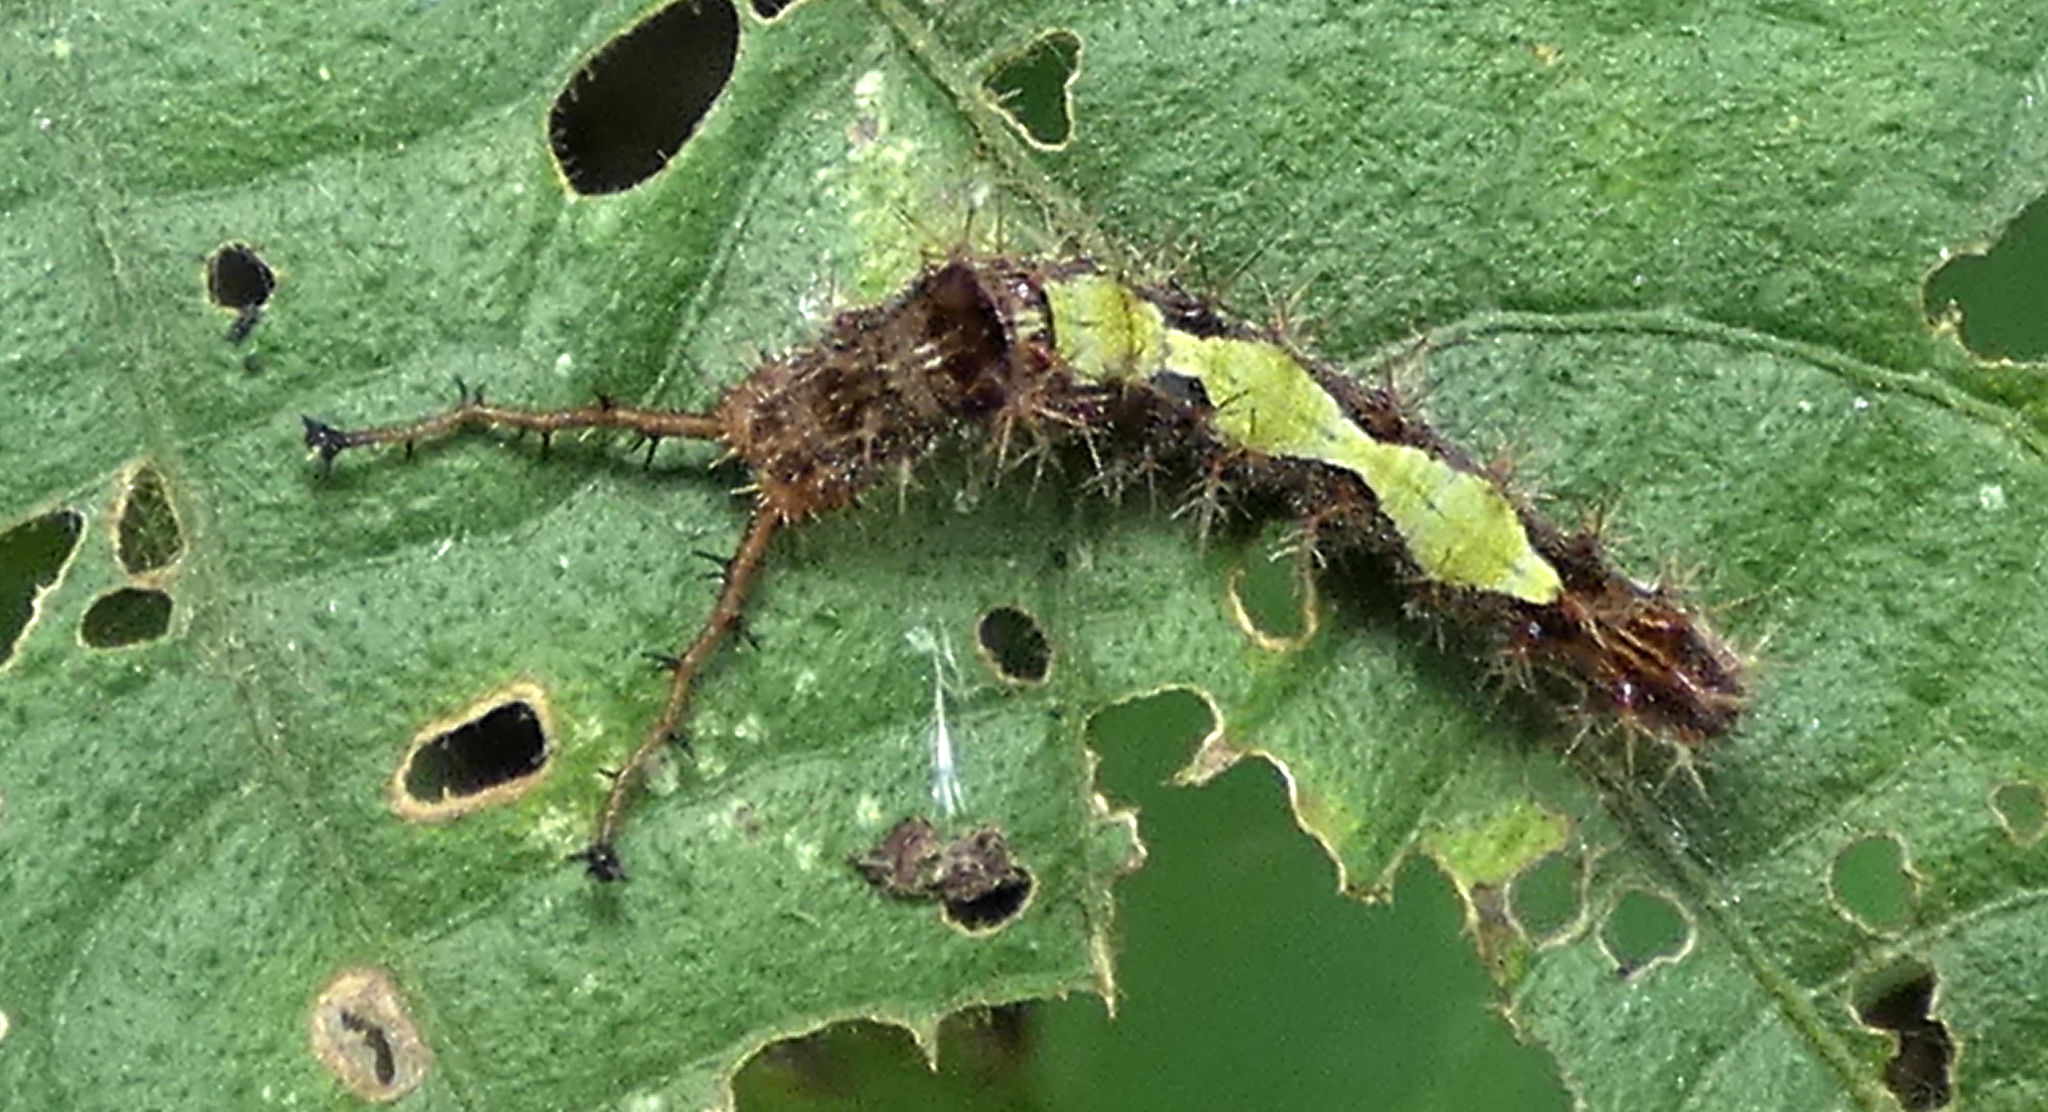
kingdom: Animalia
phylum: Arthropoda
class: Insecta
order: Lepidoptera
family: Nymphalidae
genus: Mestra
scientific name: Mestra hersilia
